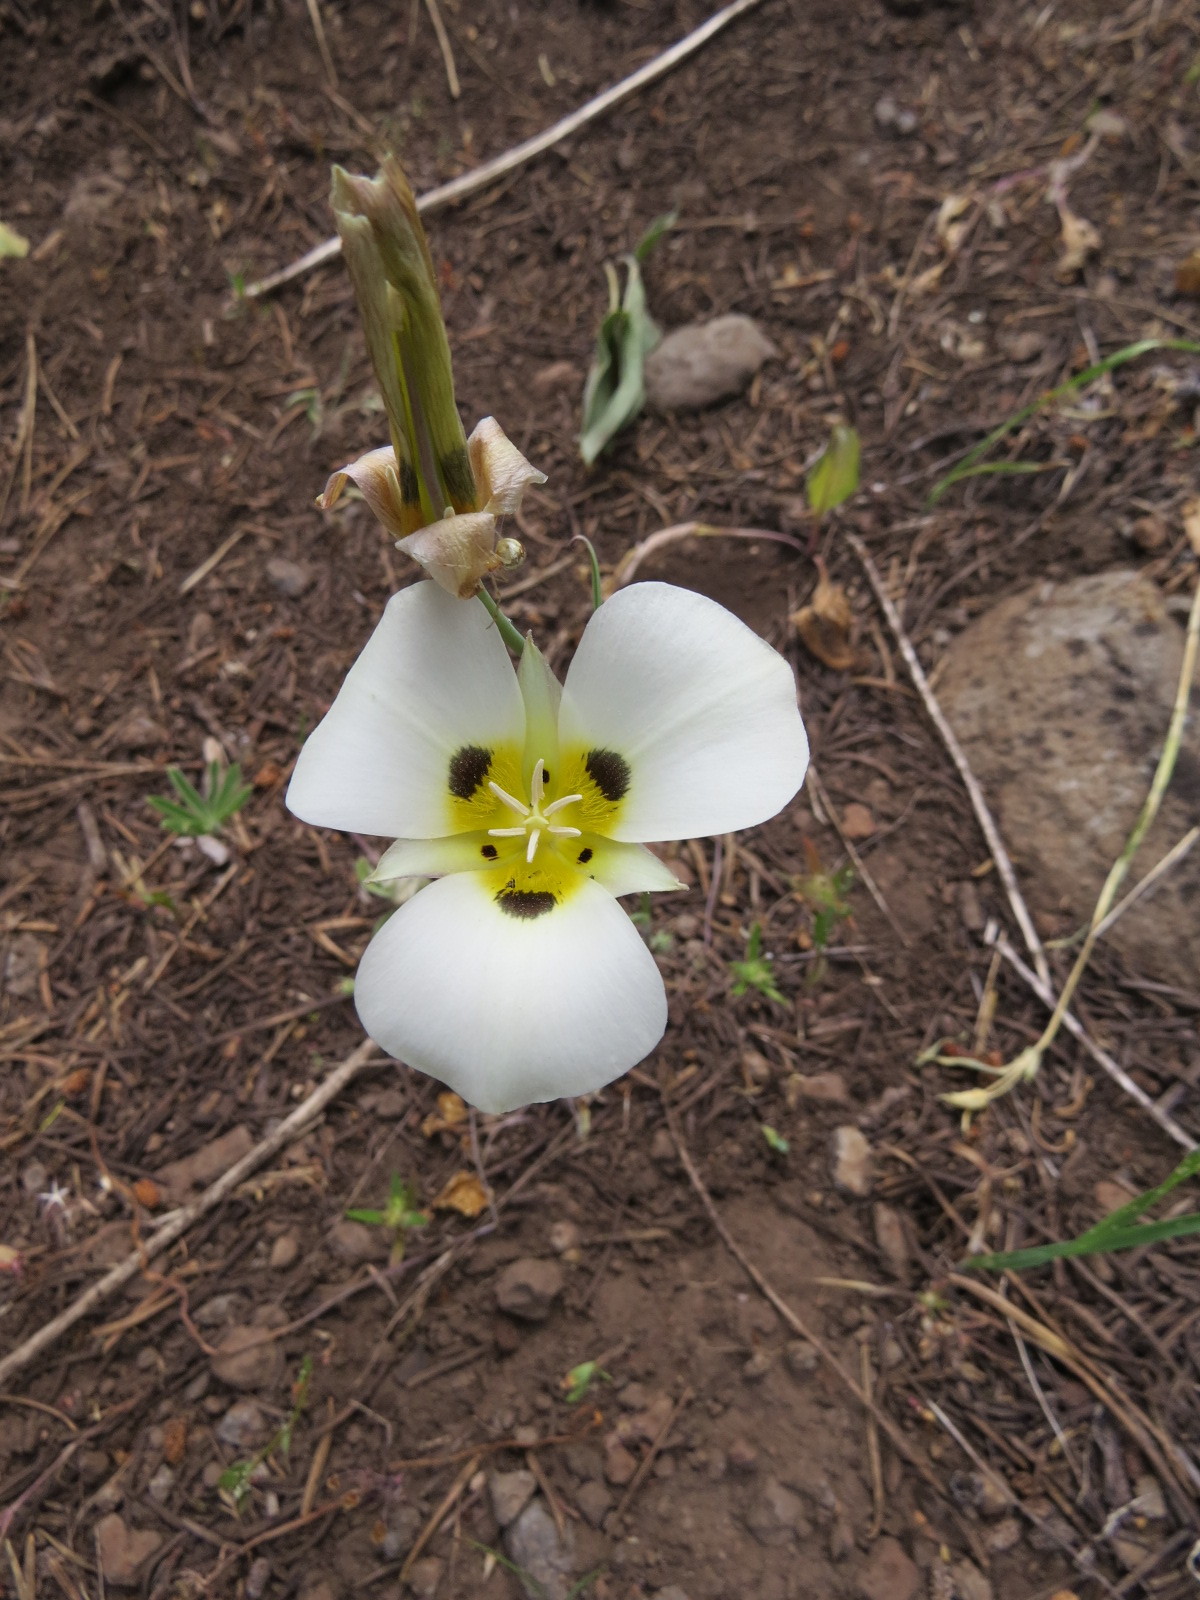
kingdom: Plantae
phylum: Tracheophyta
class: Liliopsida
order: Liliales
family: Liliaceae
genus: Calochortus
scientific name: Calochortus leichtlinii
